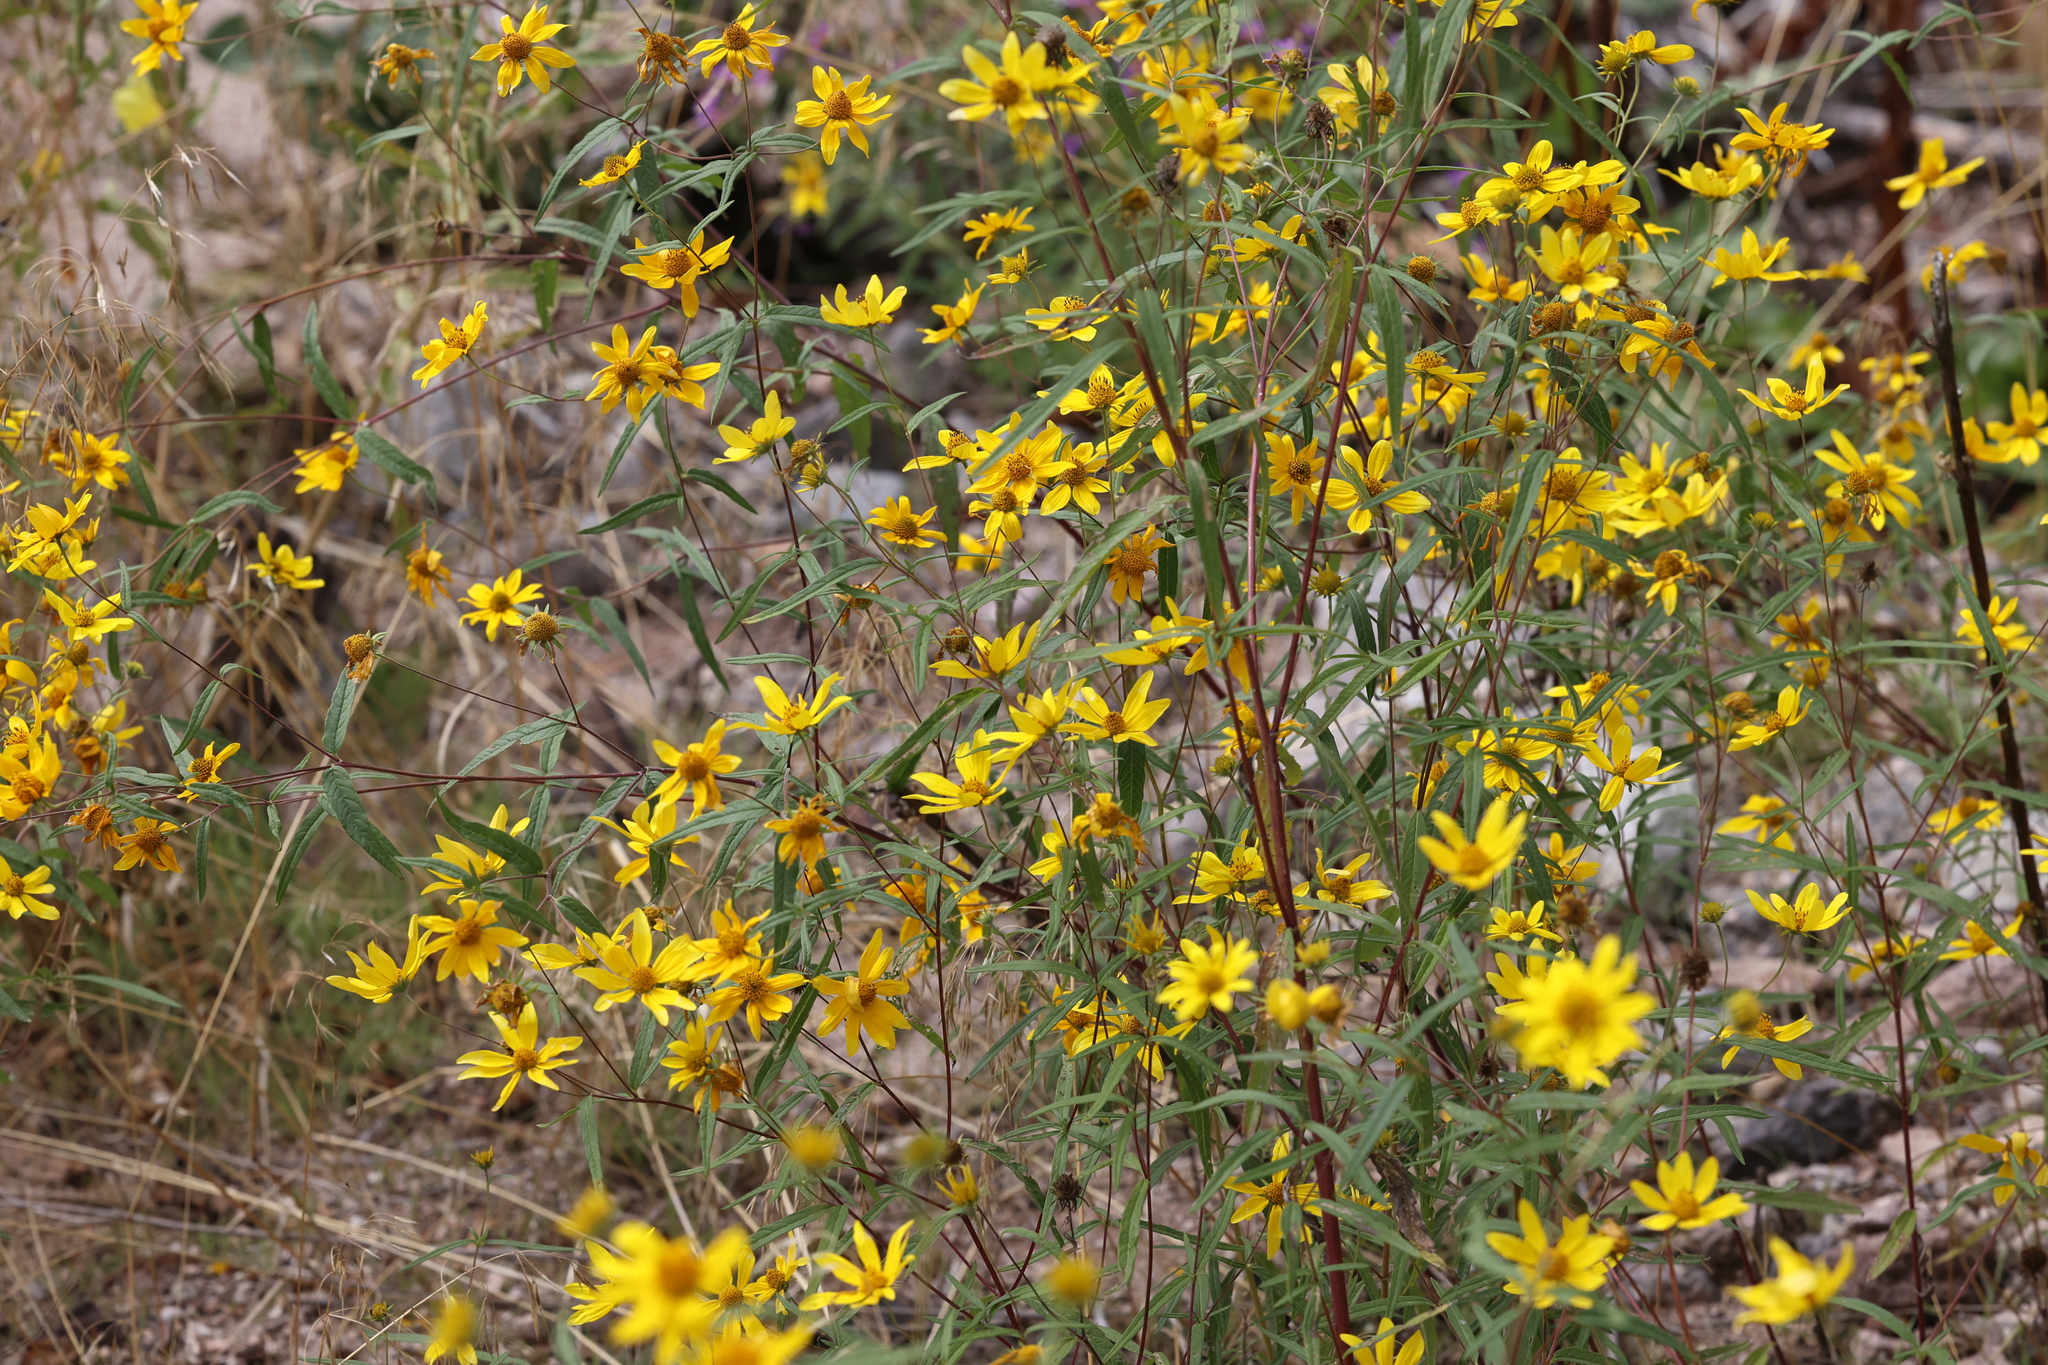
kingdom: Plantae
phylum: Tracheophyta
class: Magnoliopsida
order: Asterales
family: Asteraceae
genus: Heliomeris
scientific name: Heliomeris multiflora
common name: Showy goldeneye
